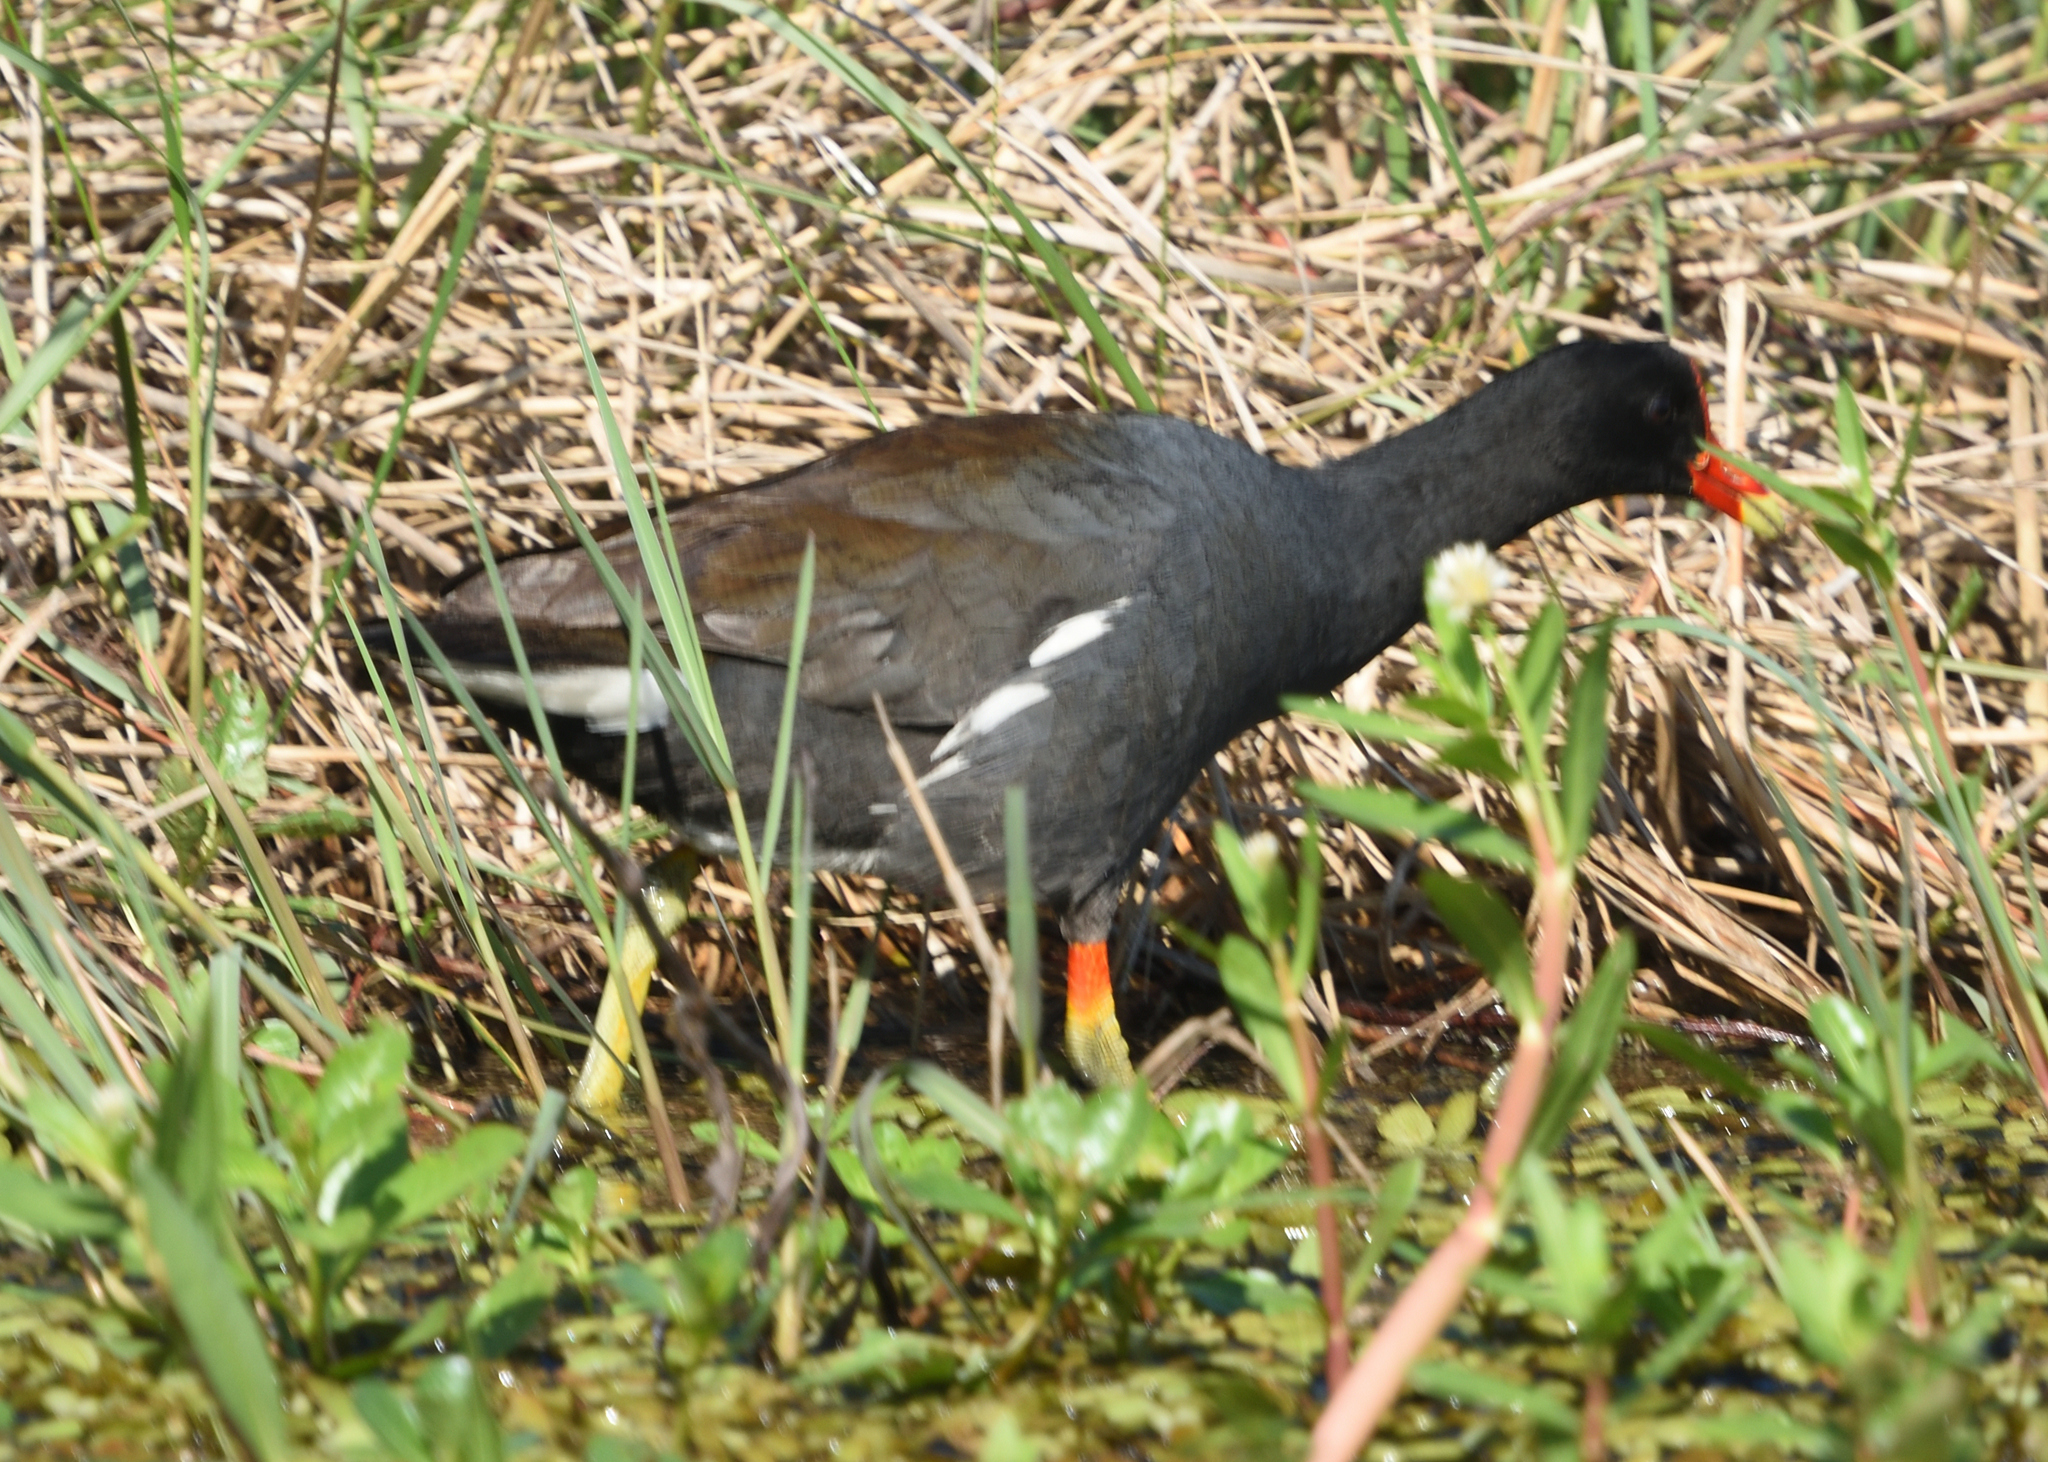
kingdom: Animalia
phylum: Chordata
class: Aves
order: Gruiformes
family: Rallidae
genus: Gallinula
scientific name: Gallinula chloropus
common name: Common moorhen
